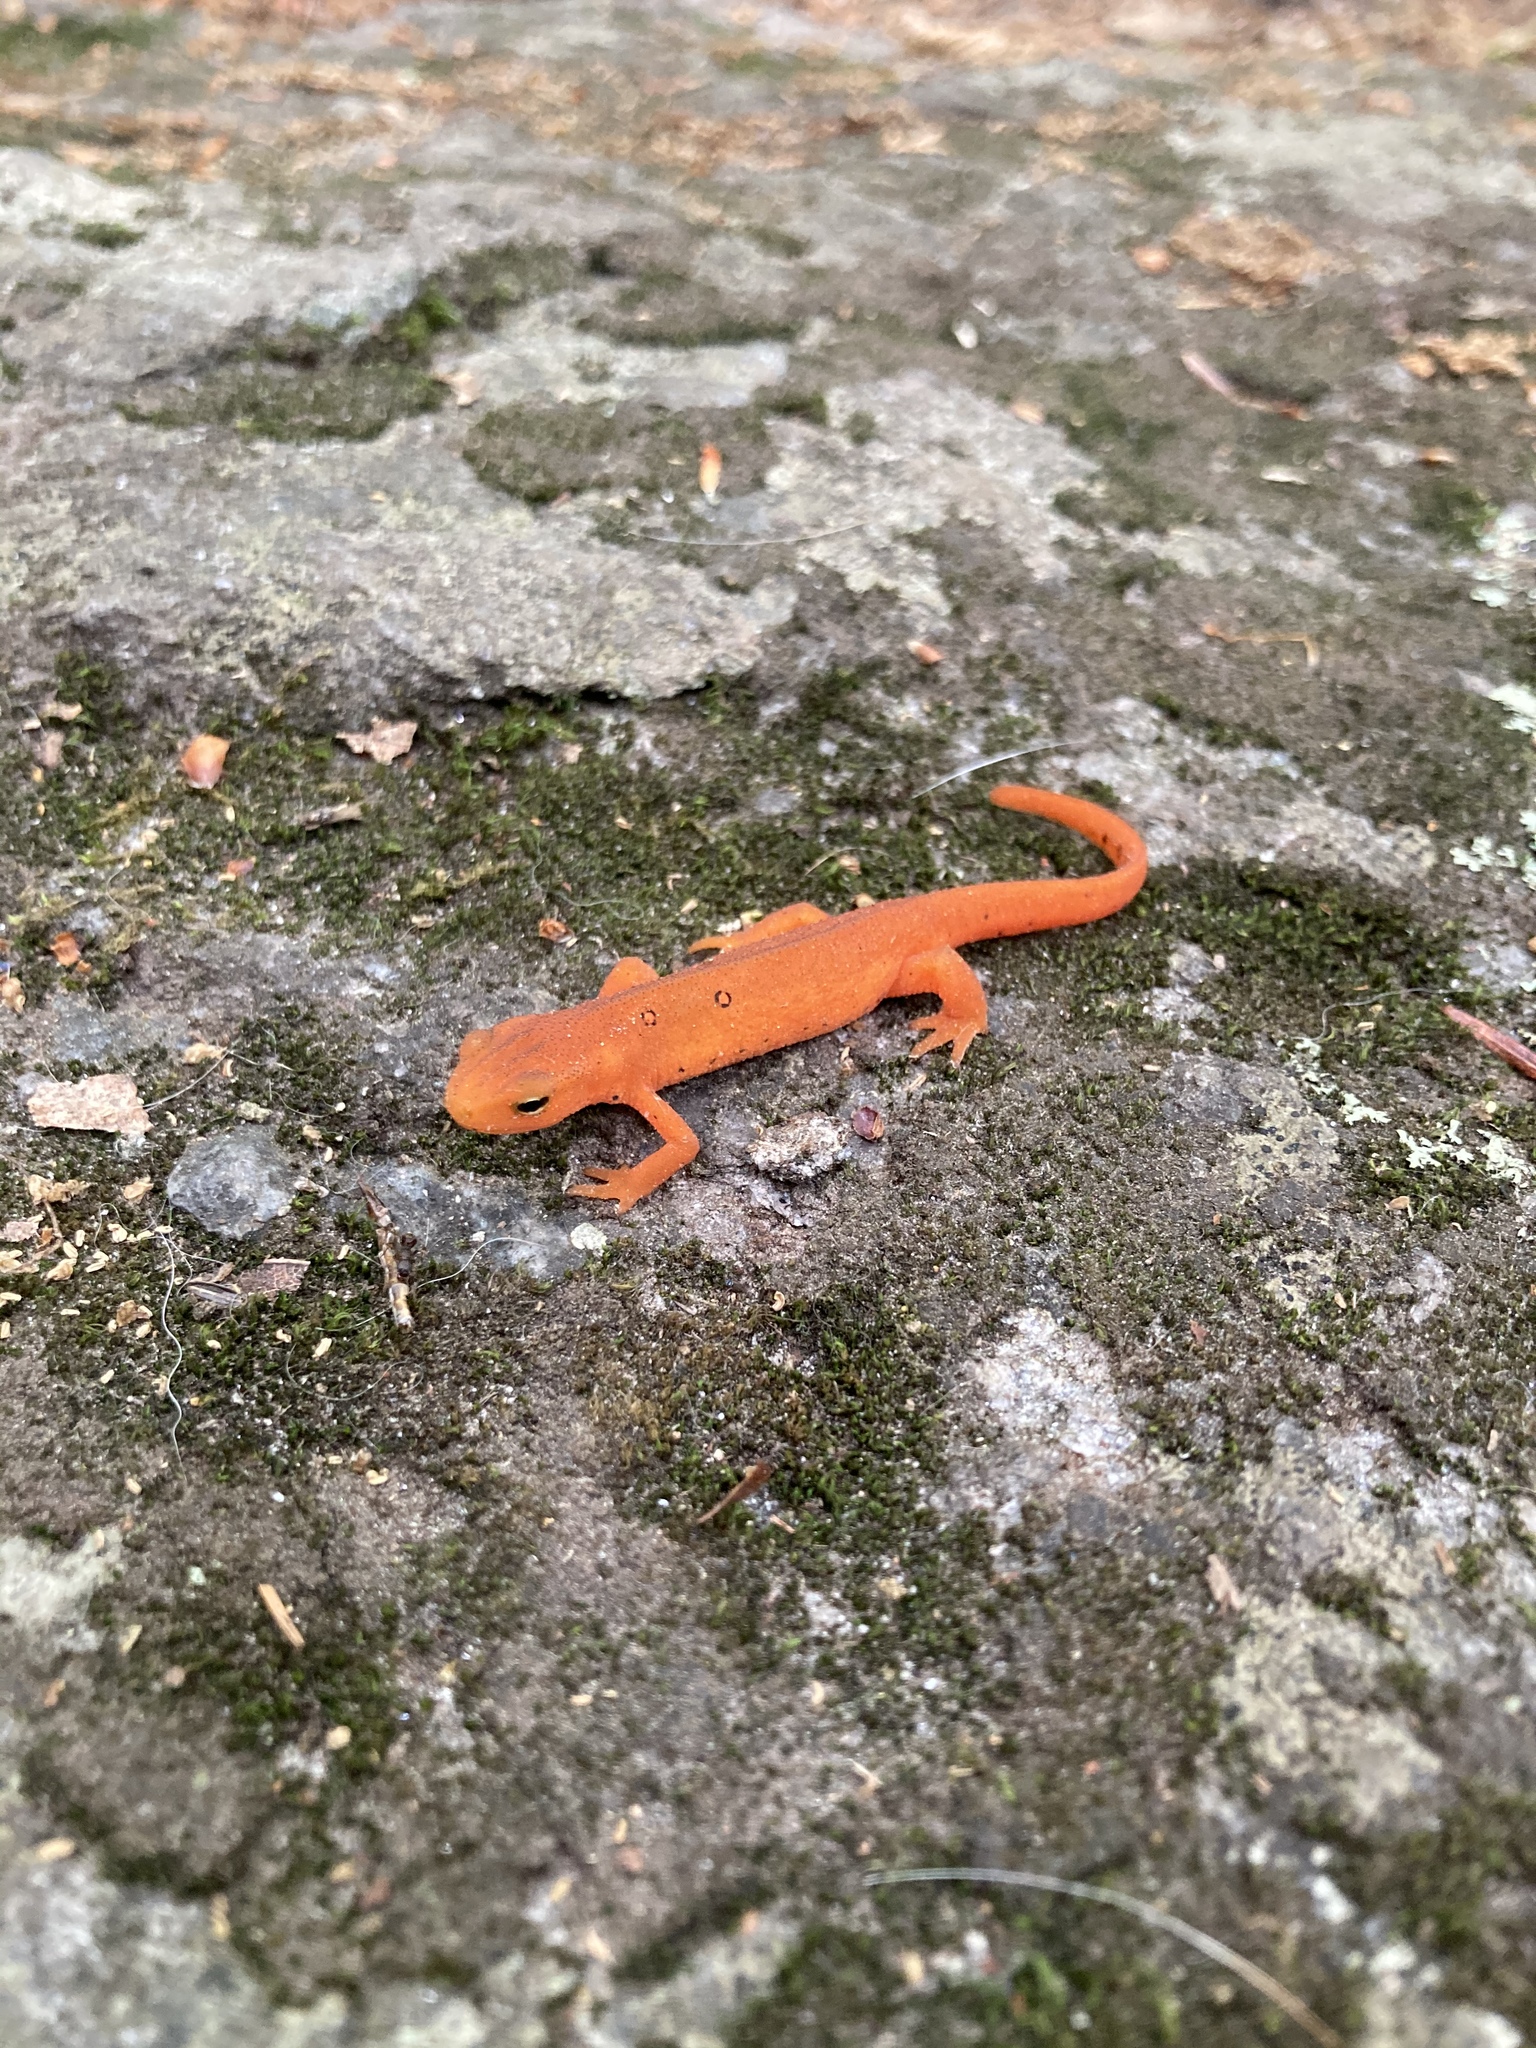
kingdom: Animalia
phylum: Chordata
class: Amphibia
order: Caudata
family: Salamandridae
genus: Notophthalmus
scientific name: Notophthalmus viridescens
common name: Eastern newt
